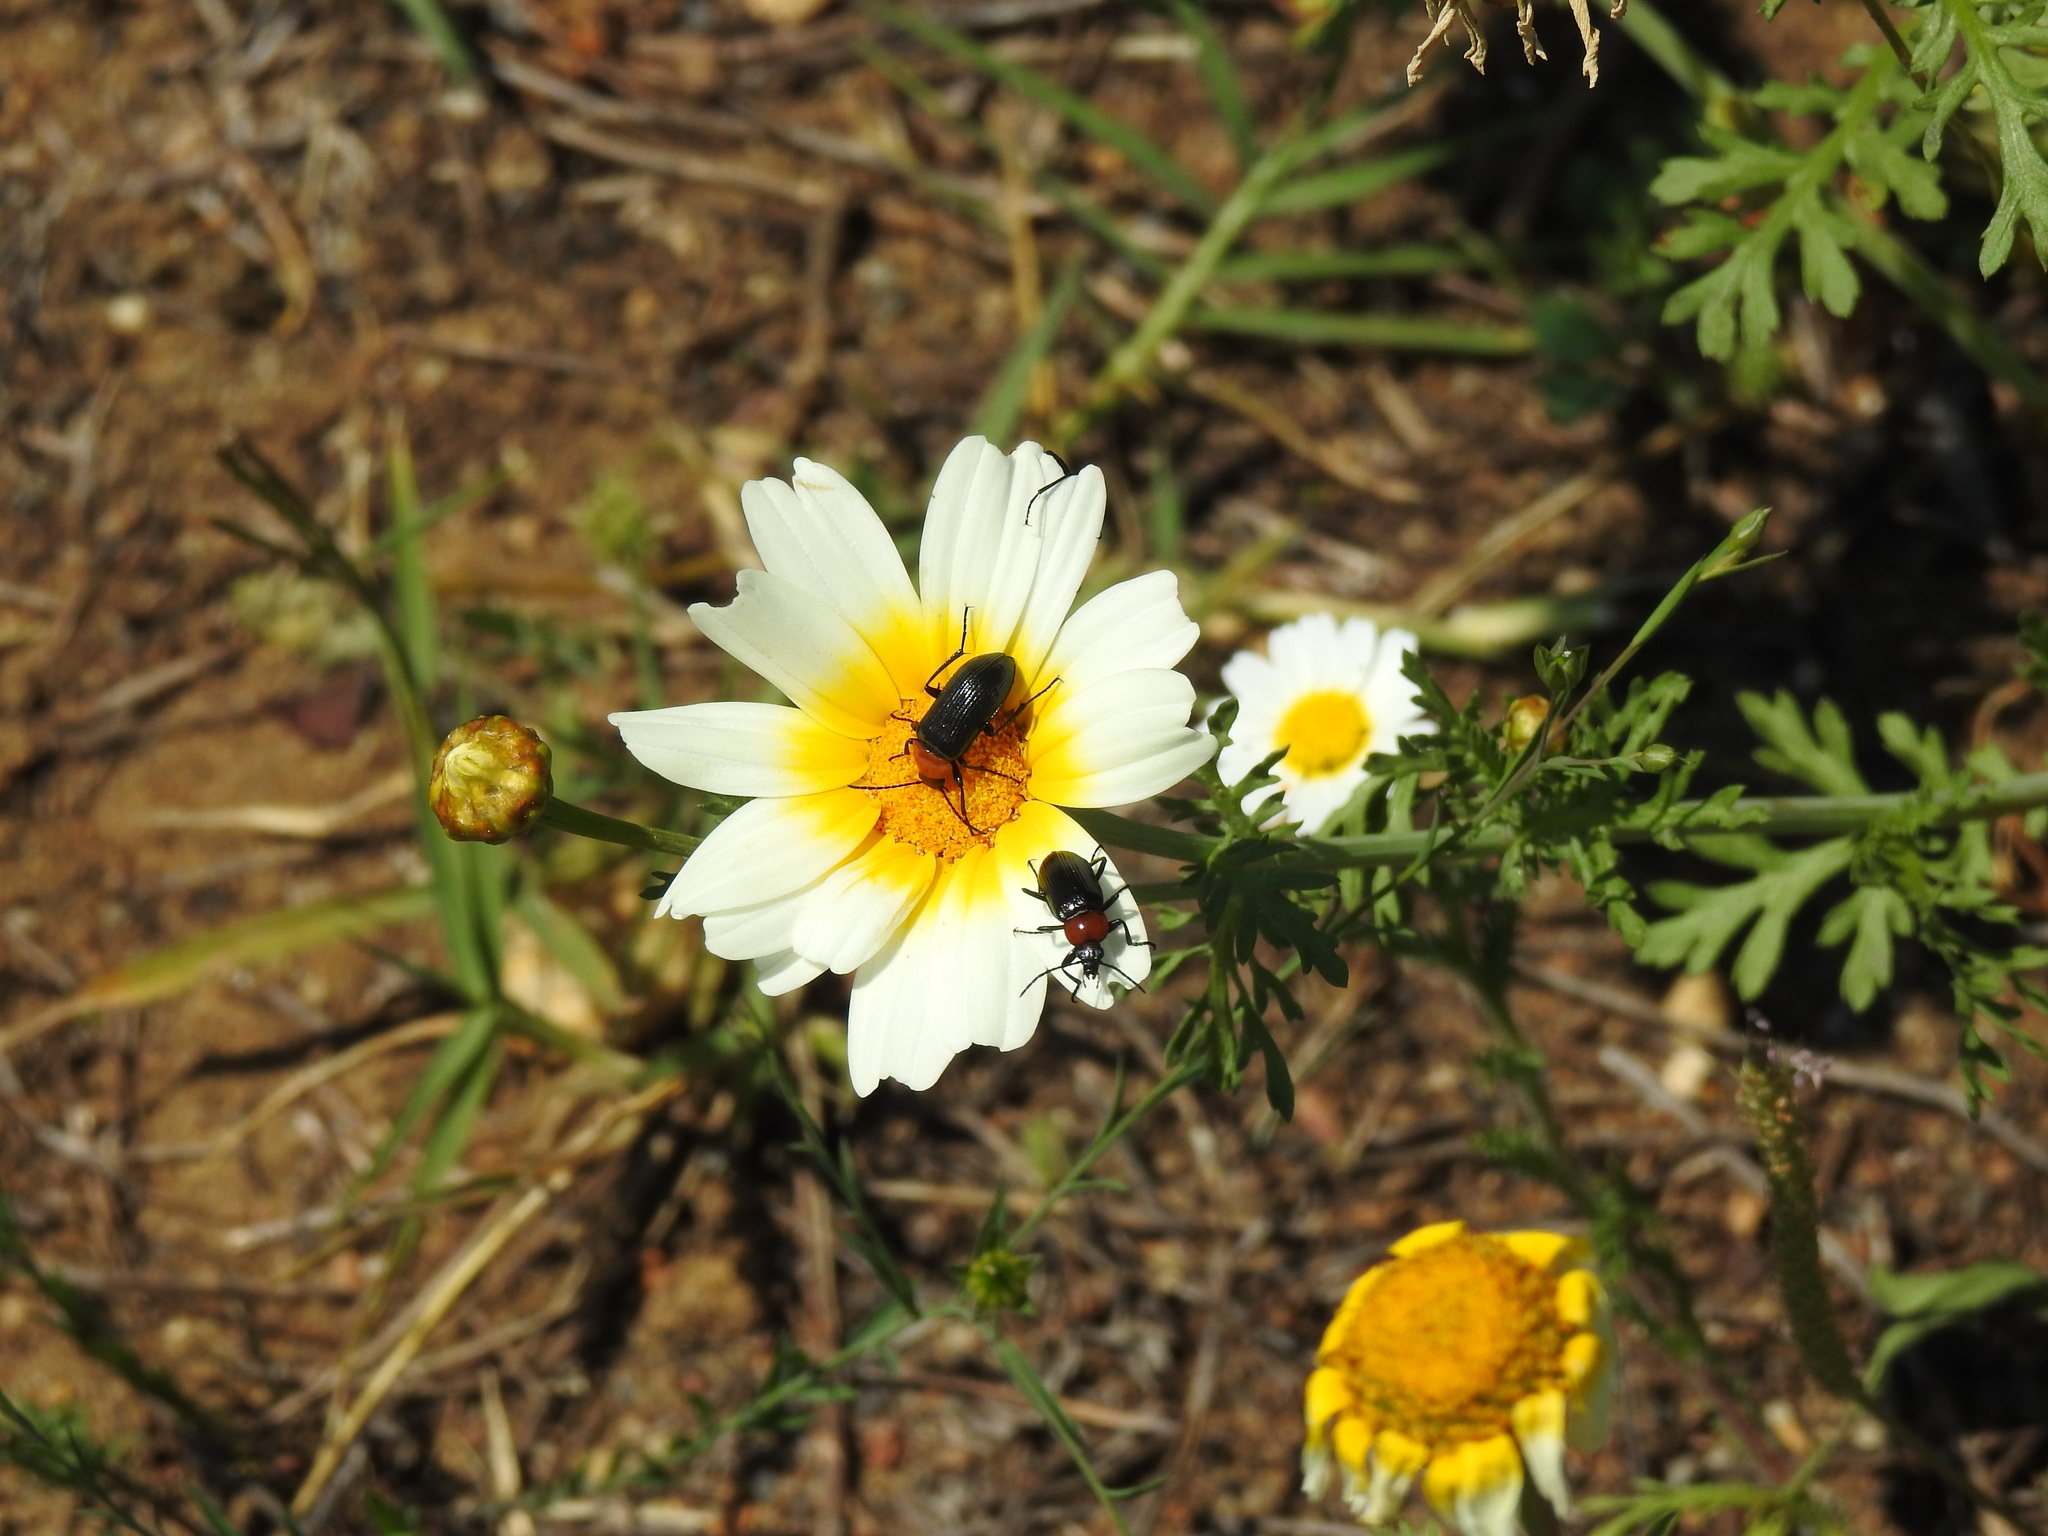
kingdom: Animalia
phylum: Arthropoda
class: Insecta
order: Coleoptera
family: Tenebrionidae
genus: Heliotaurus
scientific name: Heliotaurus ruficollis
